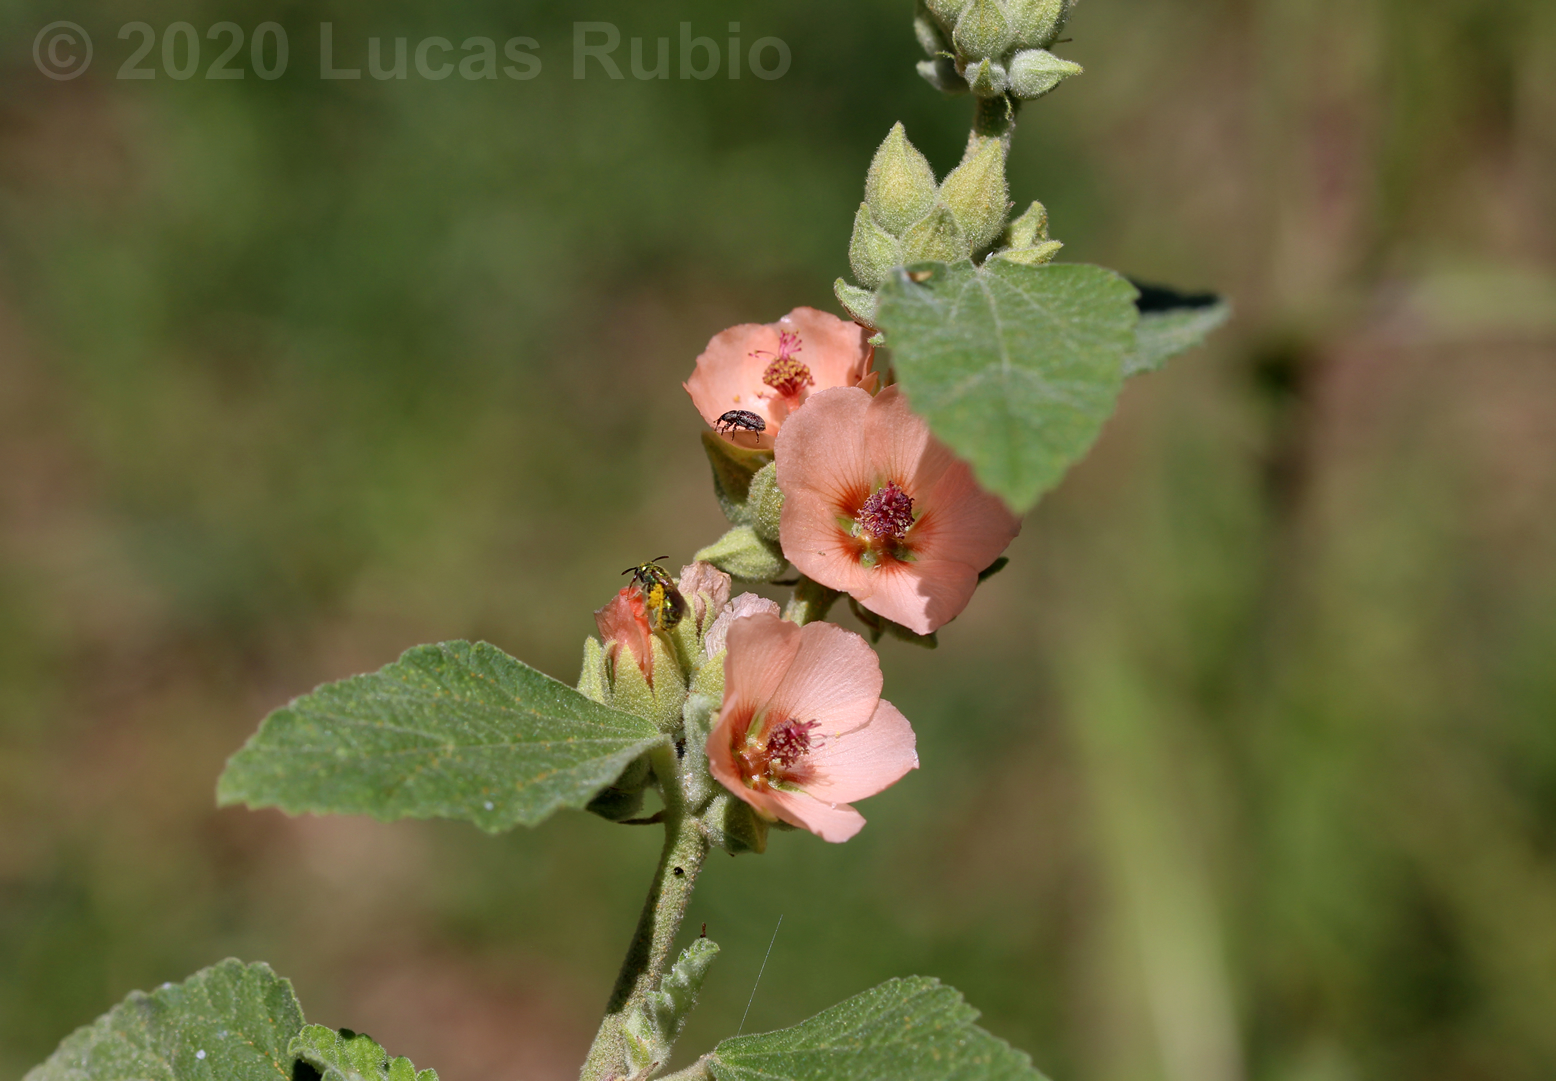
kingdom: Plantae
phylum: Tracheophyta
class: Magnoliopsida
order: Malvales
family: Malvaceae
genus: Sphaeralcea
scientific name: Sphaeralcea bonariensis
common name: Latin globemallow
